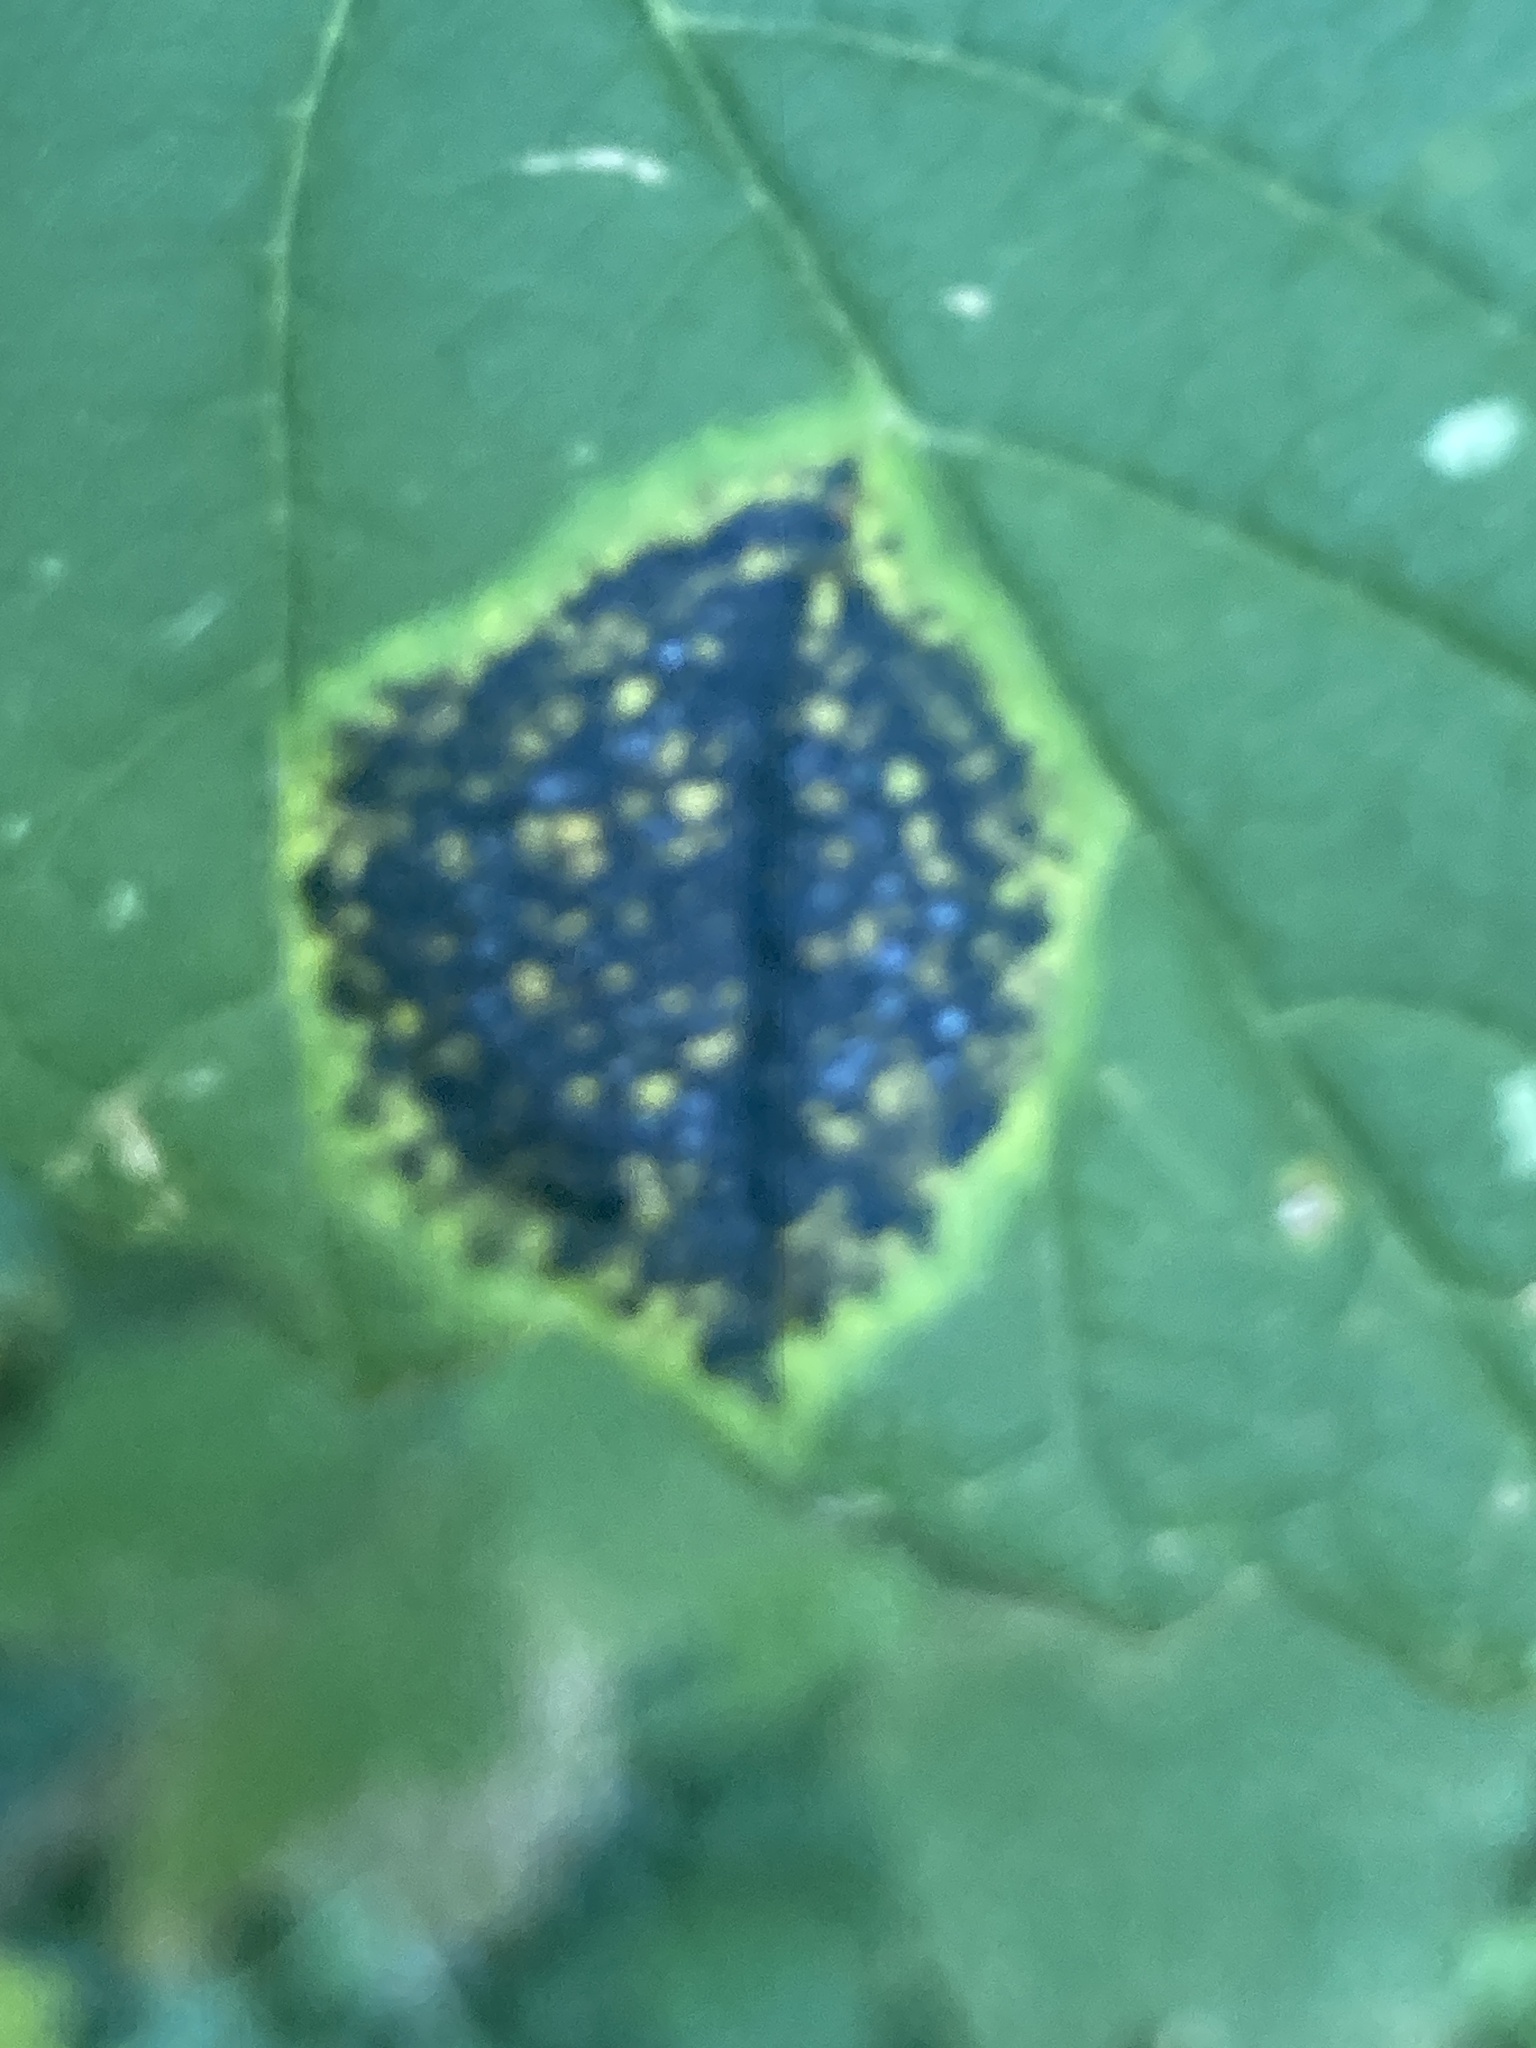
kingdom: Fungi
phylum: Ascomycota
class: Leotiomycetes
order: Rhytismatales
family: Rhytismataceae
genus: Rhytisma
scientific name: Rhytisma acerinum
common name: European tar spot
